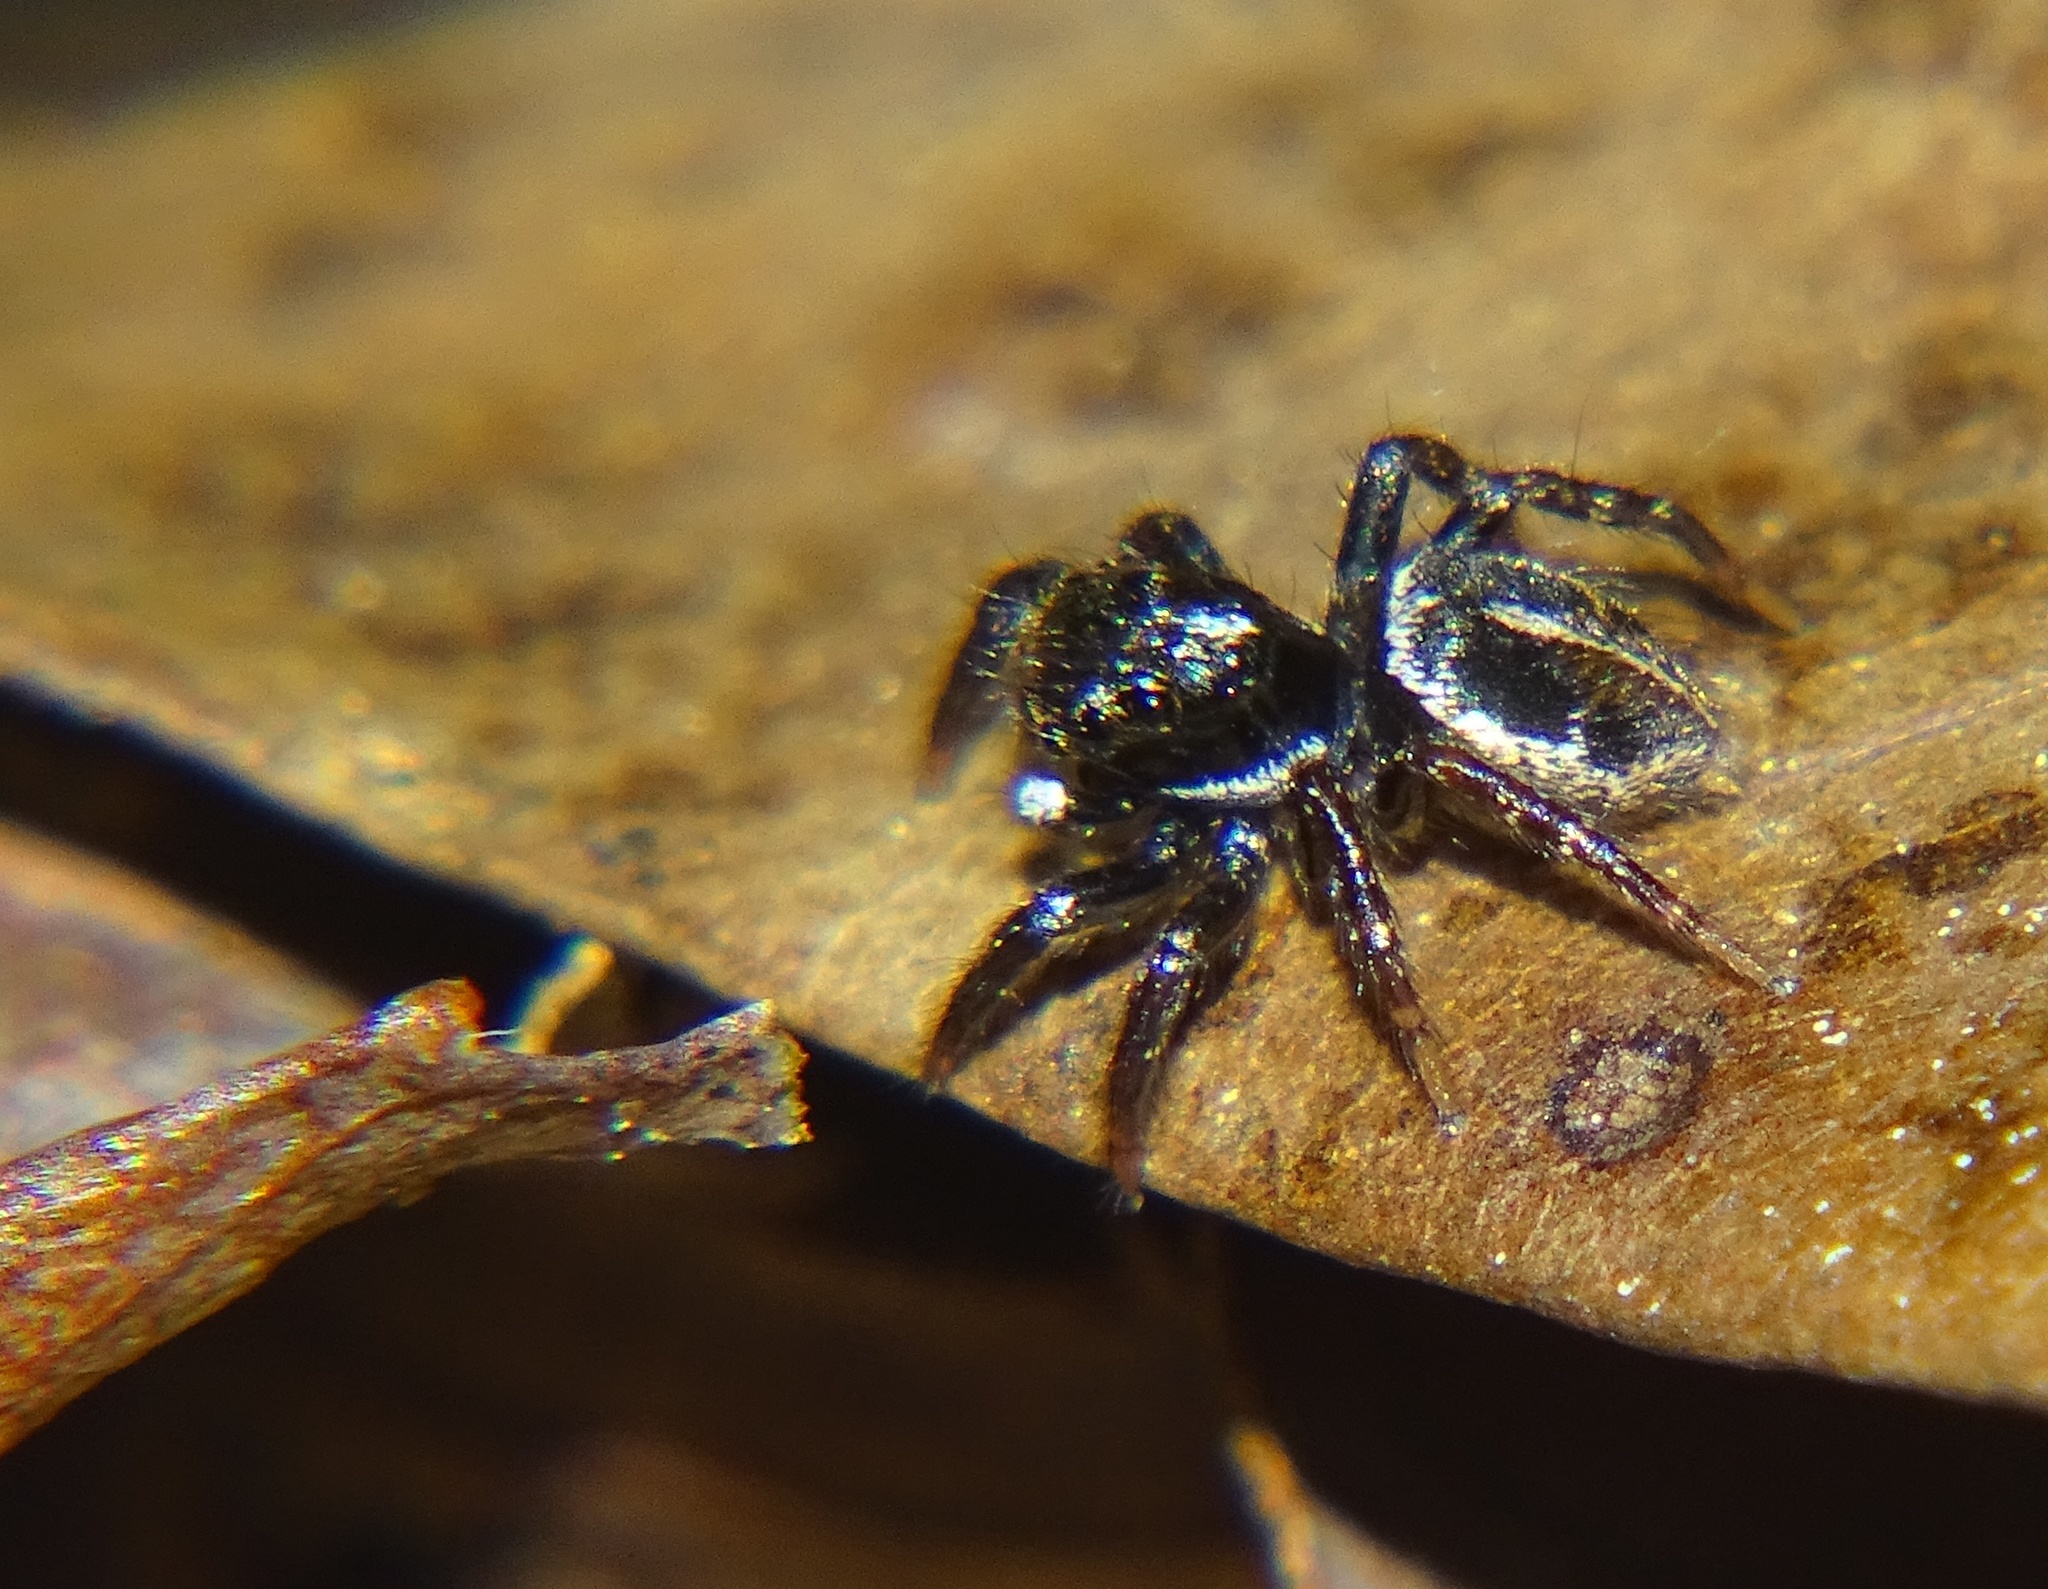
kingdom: Animalia
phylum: Arthropoda
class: Arachnida
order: Araneae
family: Salticidae
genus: Anasaitis
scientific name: Anasaitis canosa
